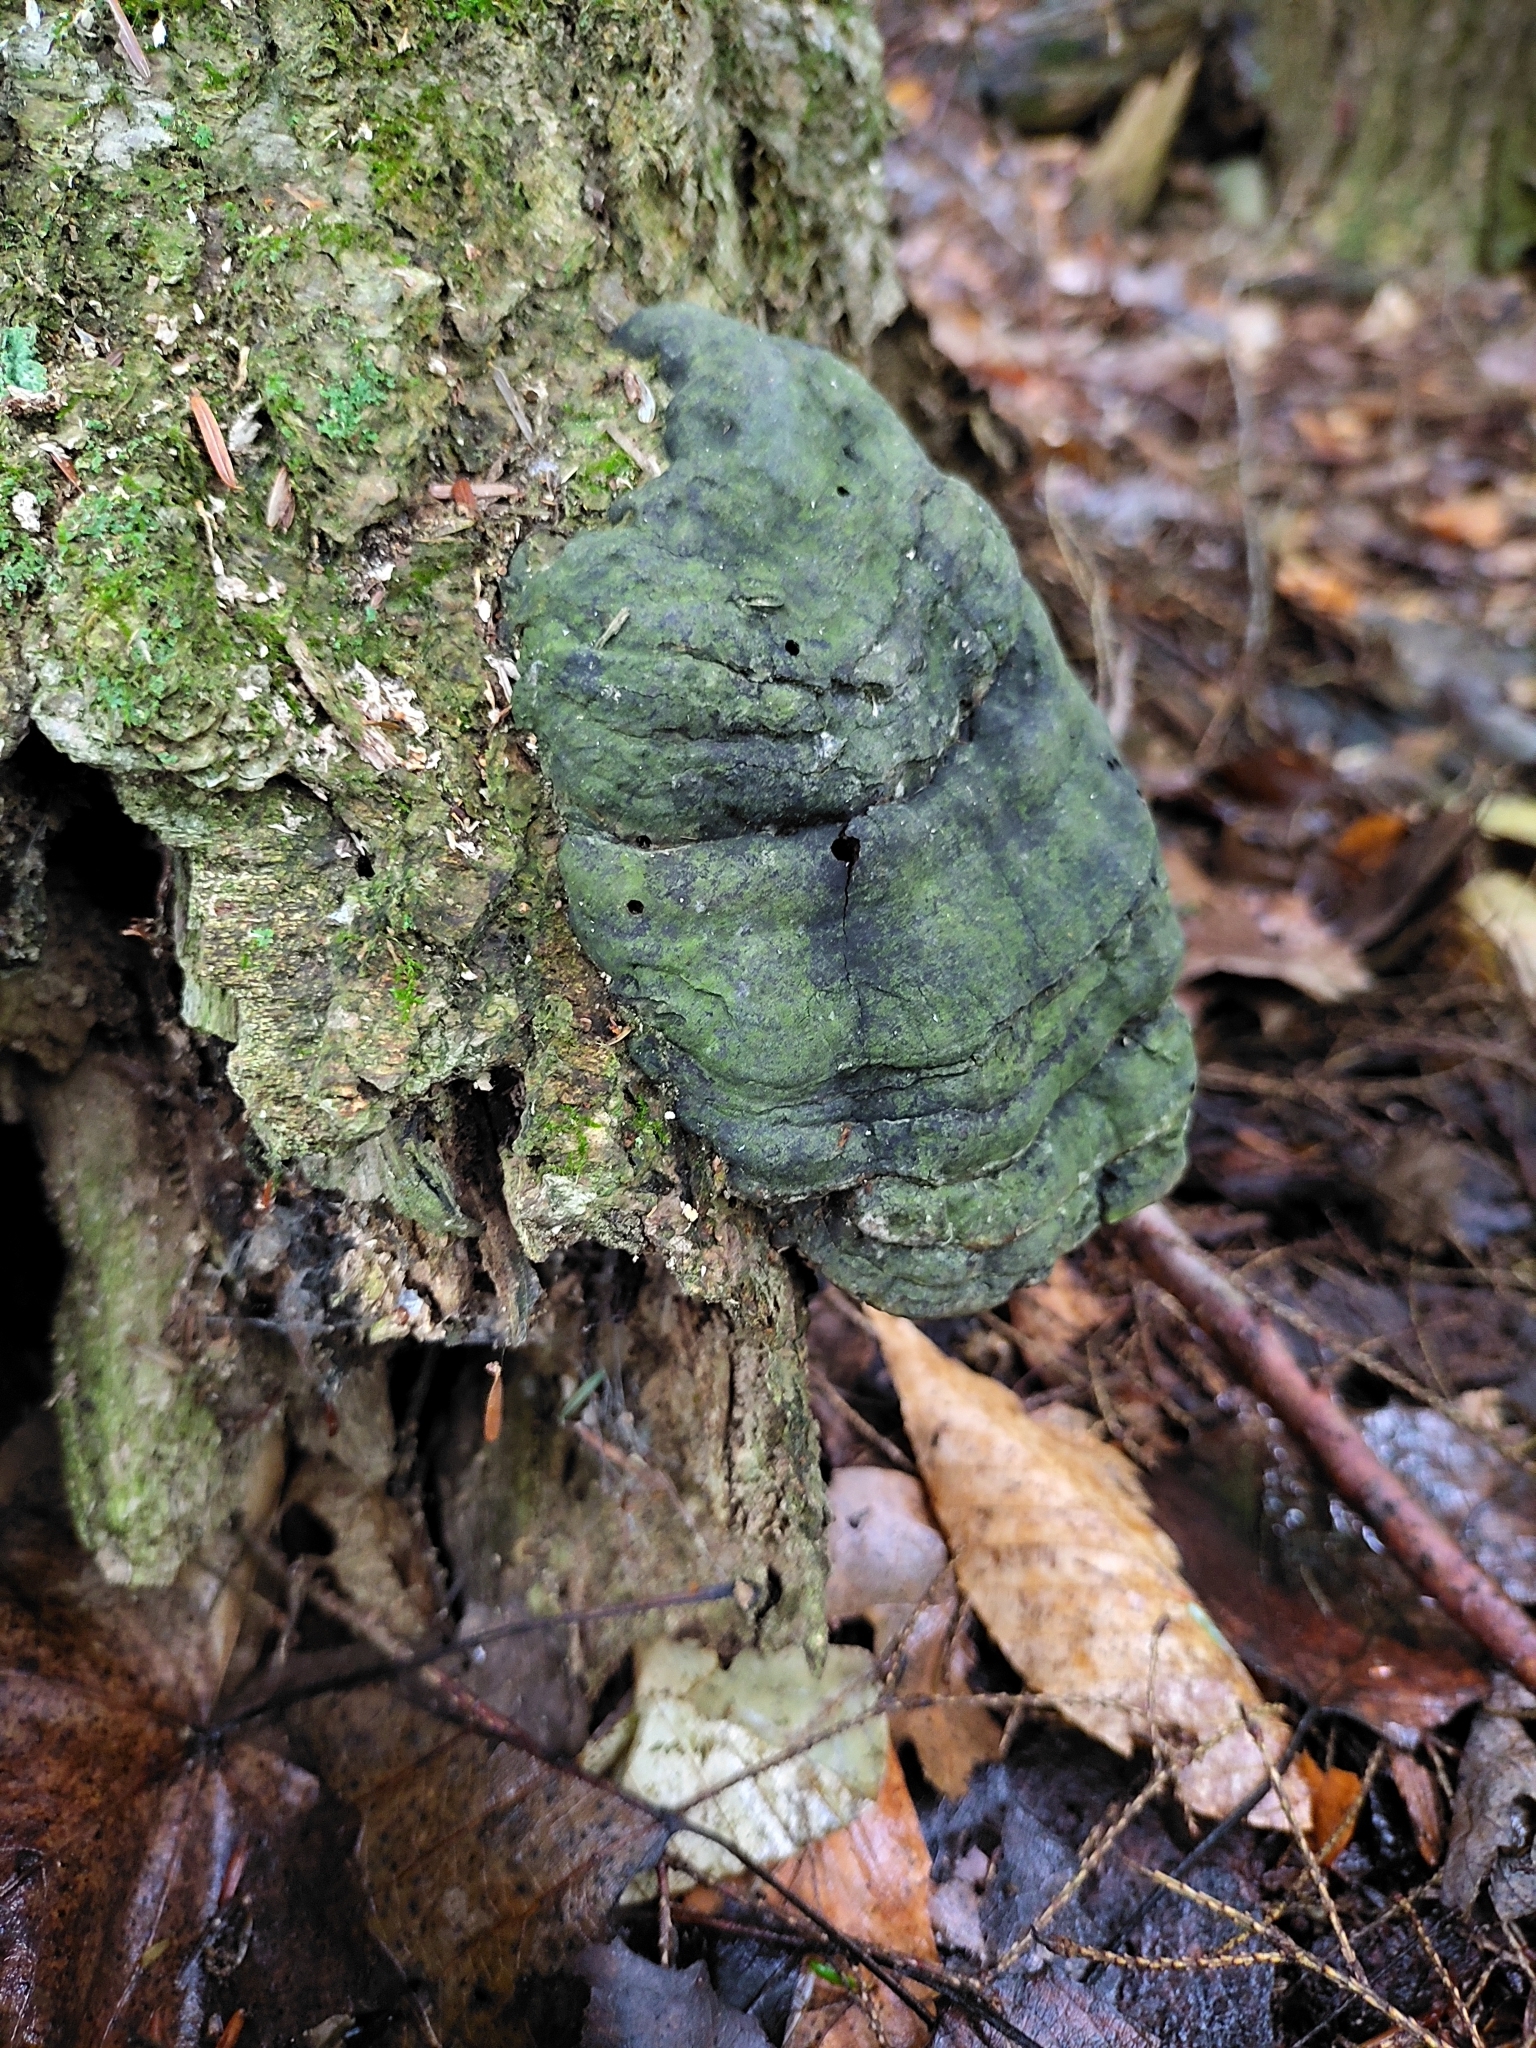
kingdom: Fungi
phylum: Basidiomycota
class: Agaricomycetes
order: Polyporales
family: Polyporaceae
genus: Fomes
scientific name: Fomes fomentarius
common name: Hoof fungus
